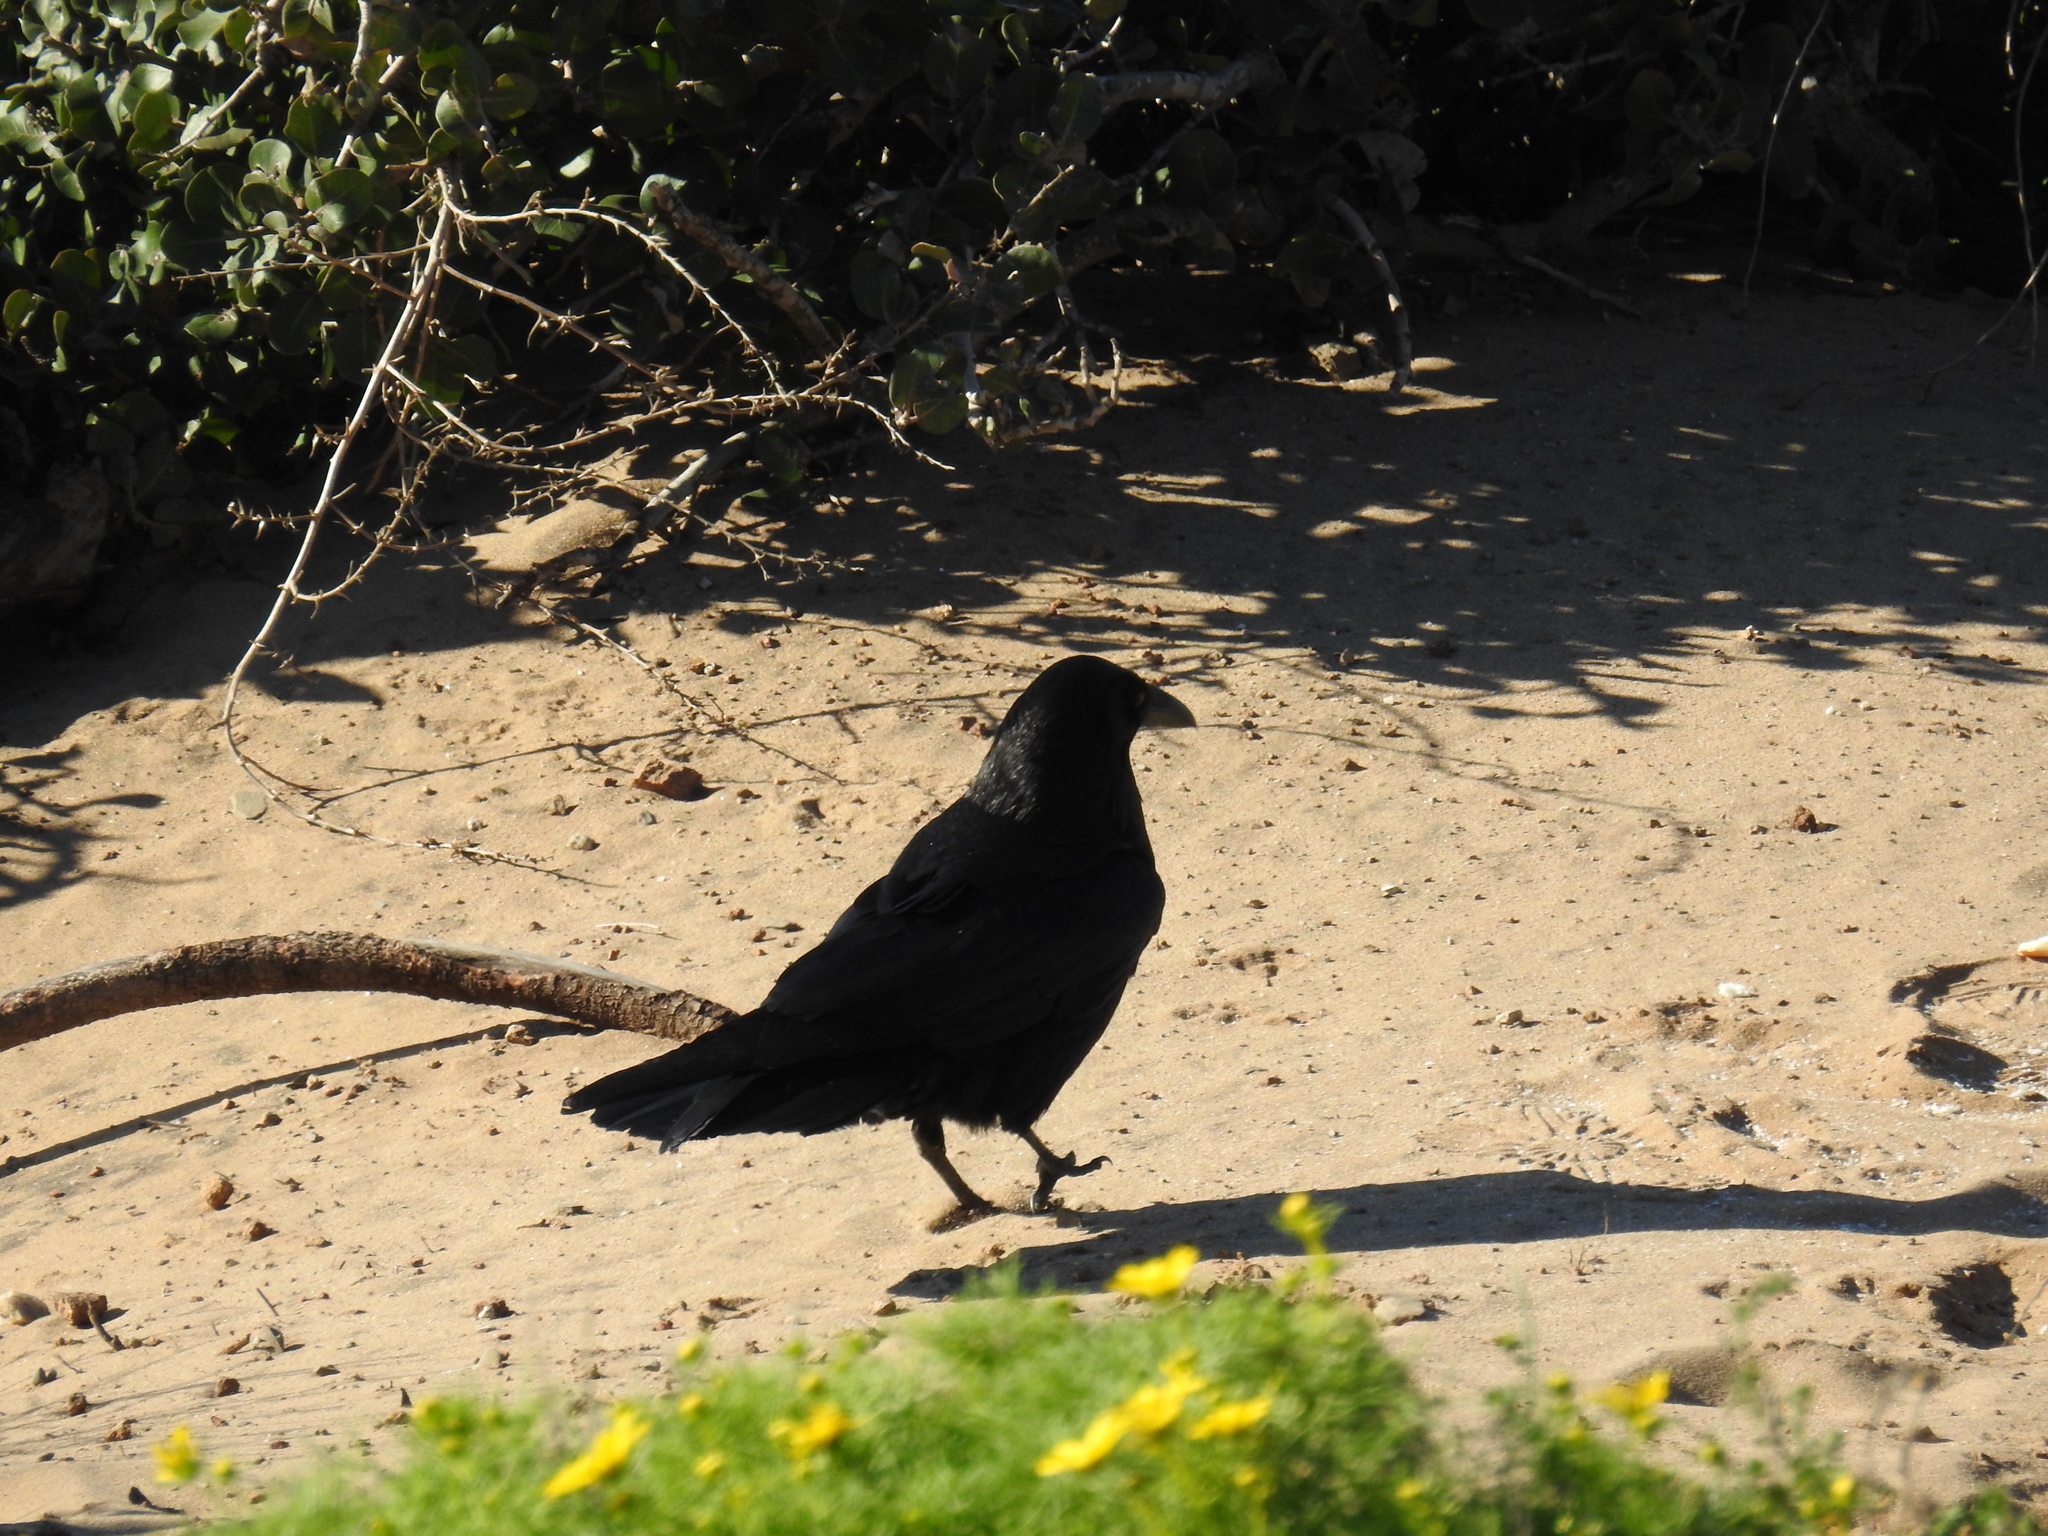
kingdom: Animalia
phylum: Chordata
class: Aves
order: Passeriformes
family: Corvidae
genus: Corvus
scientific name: Corvus corax
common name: Common raven
